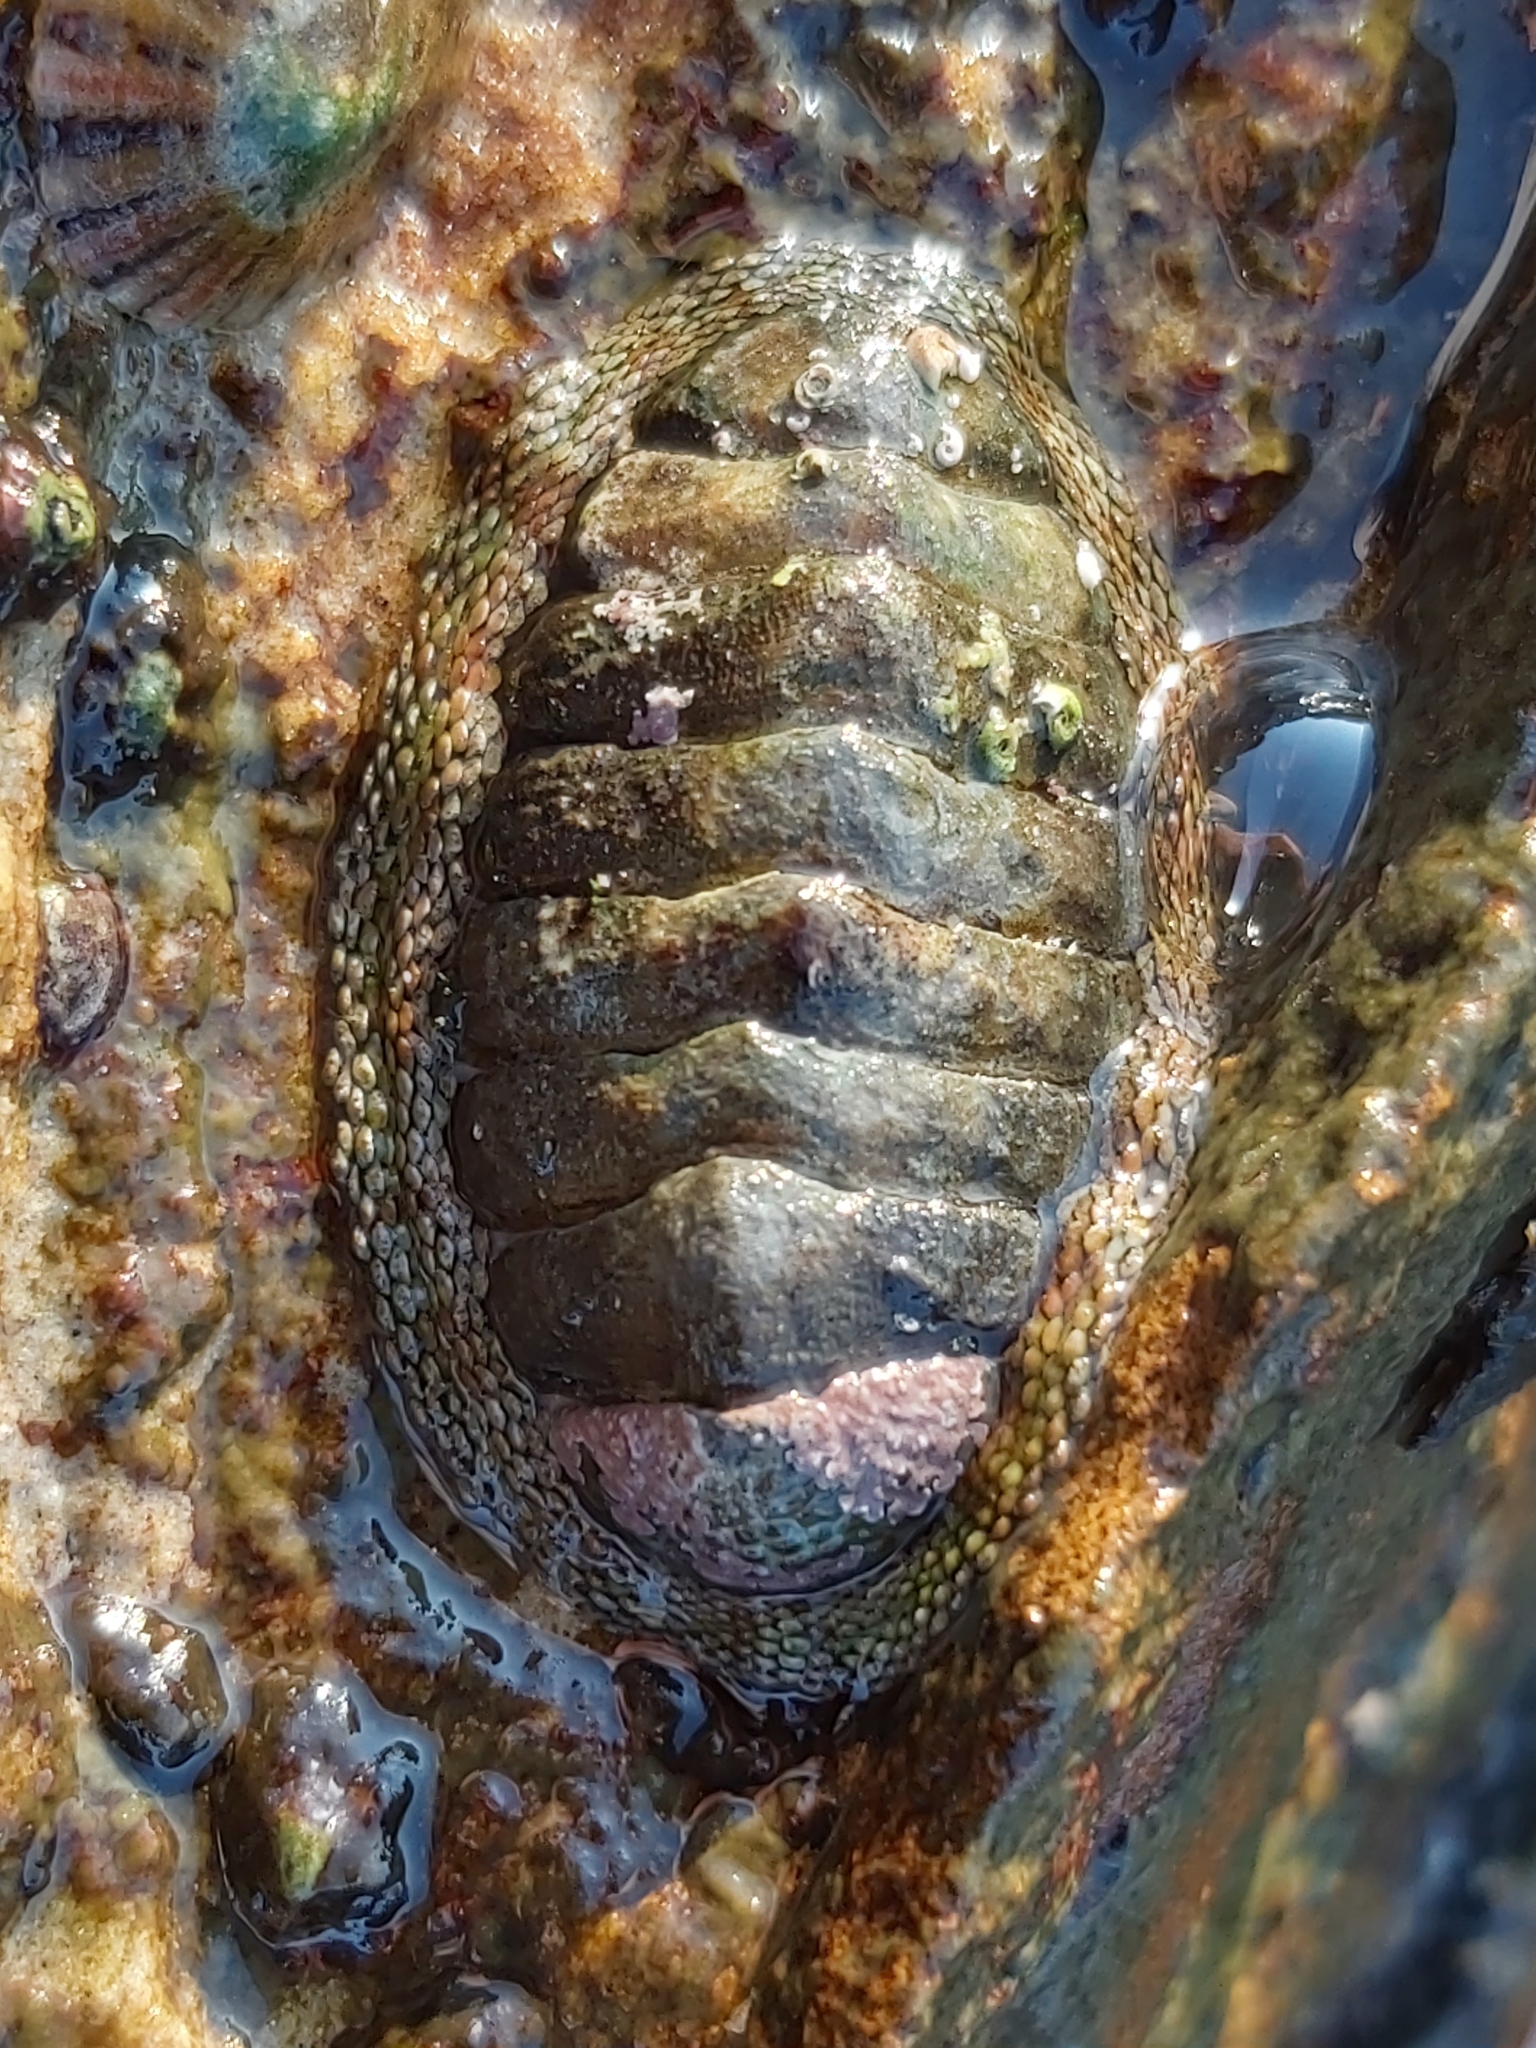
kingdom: Animalia
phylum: Mollusca
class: Polyplacophora
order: Chitonida
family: Chitonidae
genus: Sypharochiton
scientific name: Sypharochiton pelliserpentis
